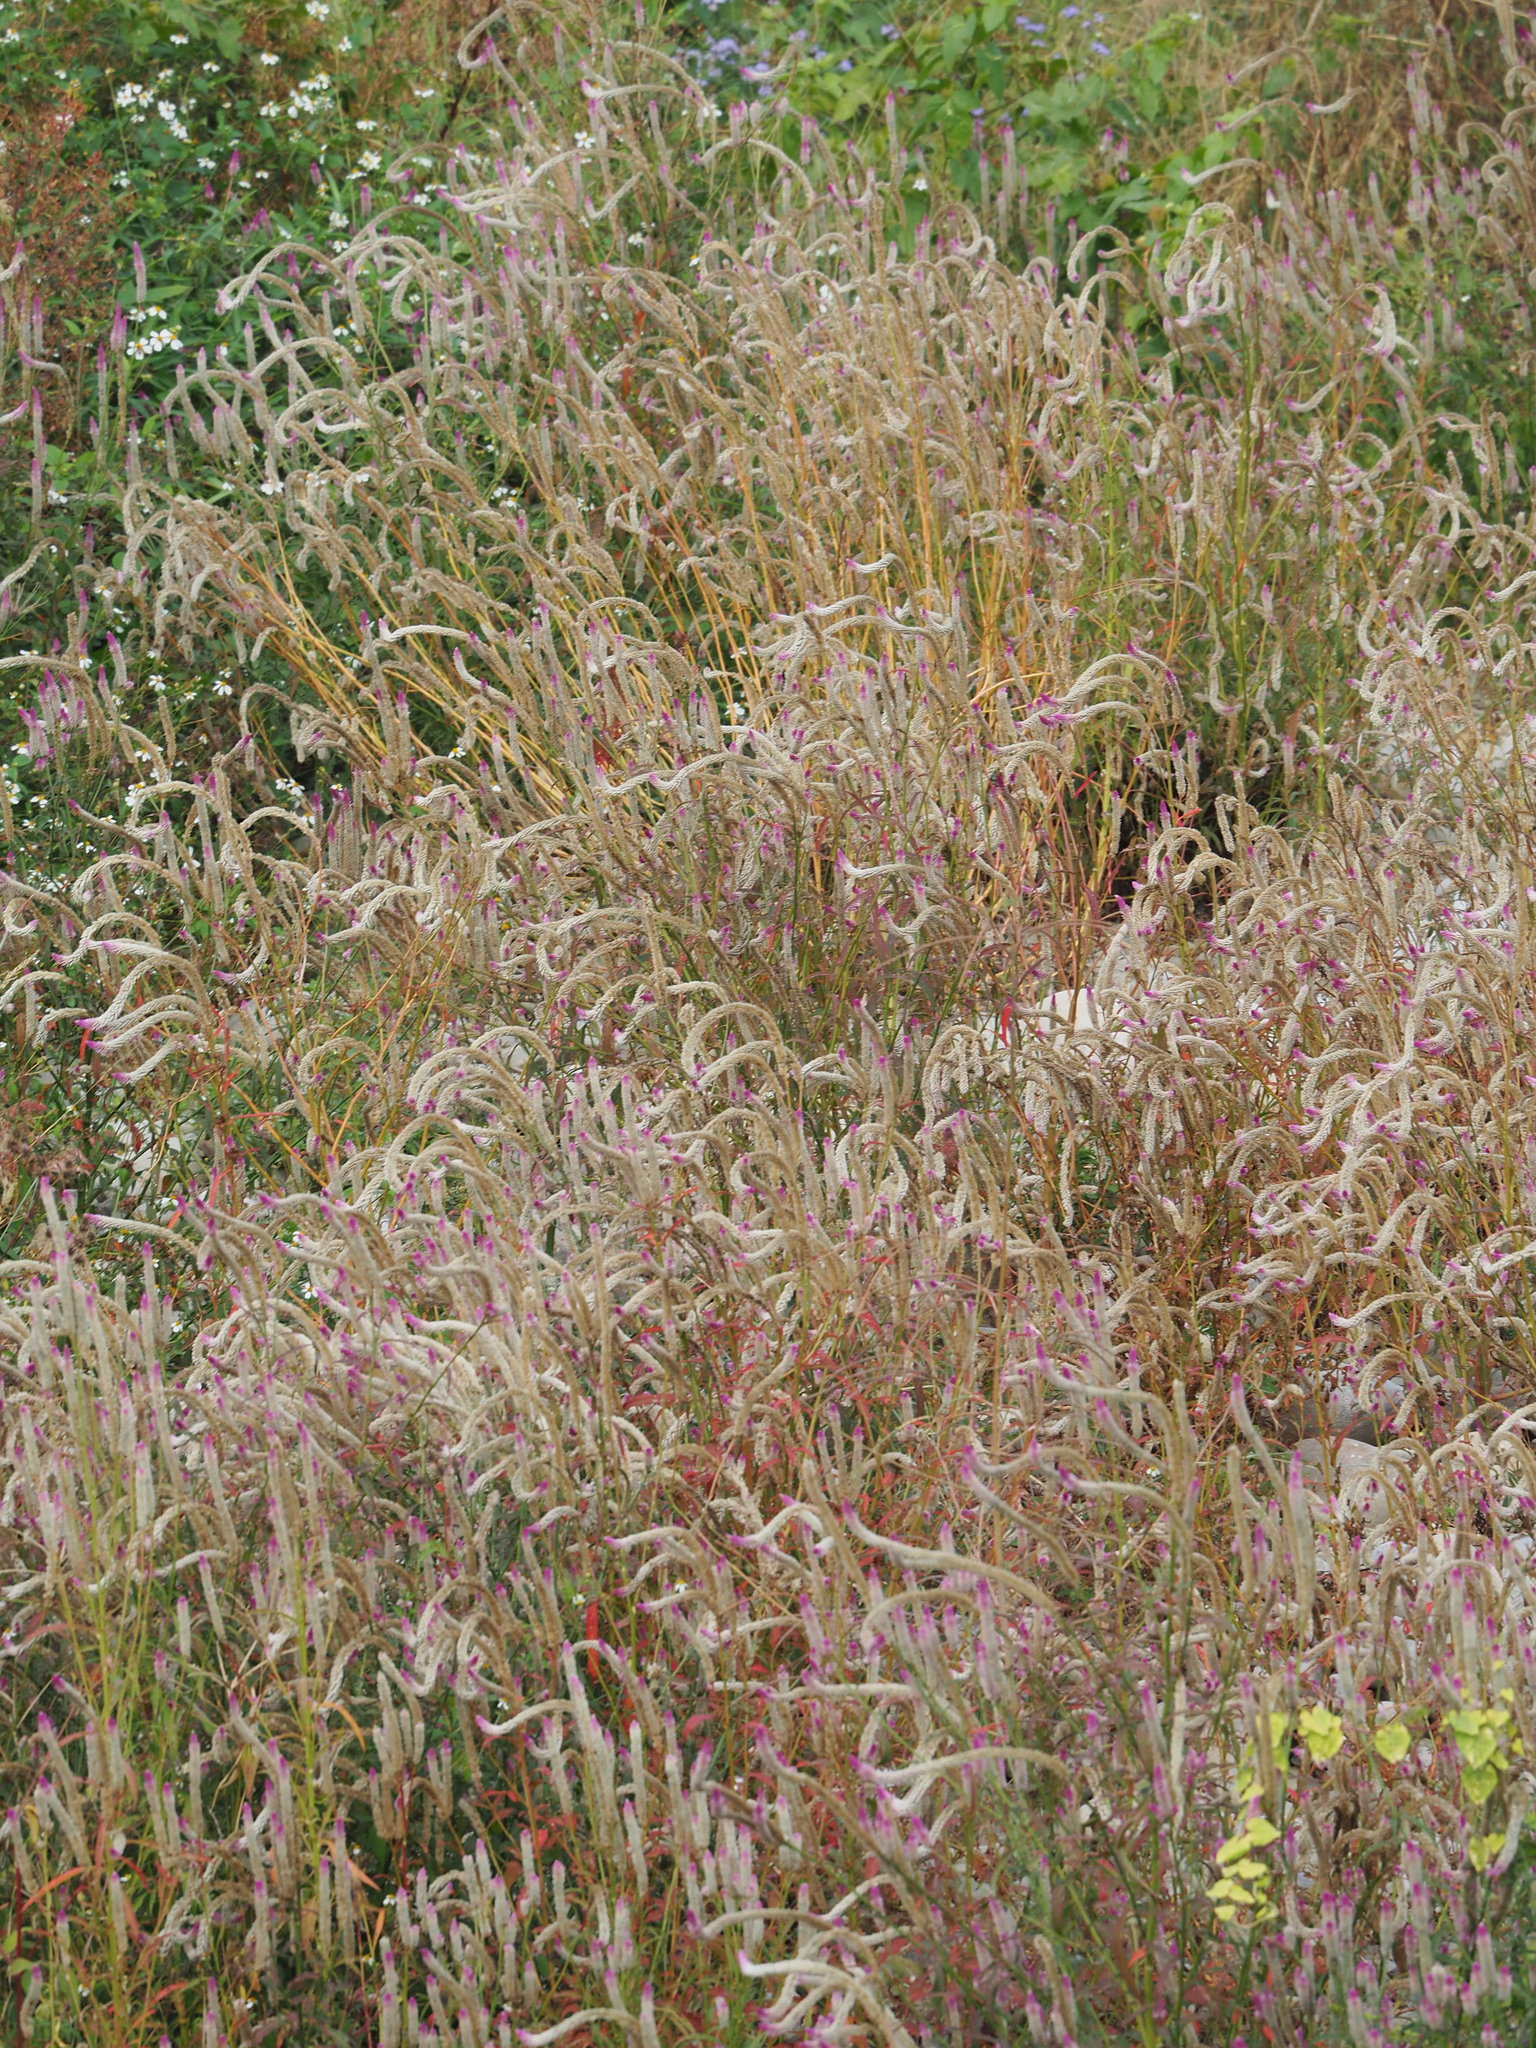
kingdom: Plantae
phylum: Tracheophyta
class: Magnoliopsida
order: Caryophyllales
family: Amaranthaceae
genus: Celosia
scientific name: Celosia argentea
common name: Feather cockscomb
